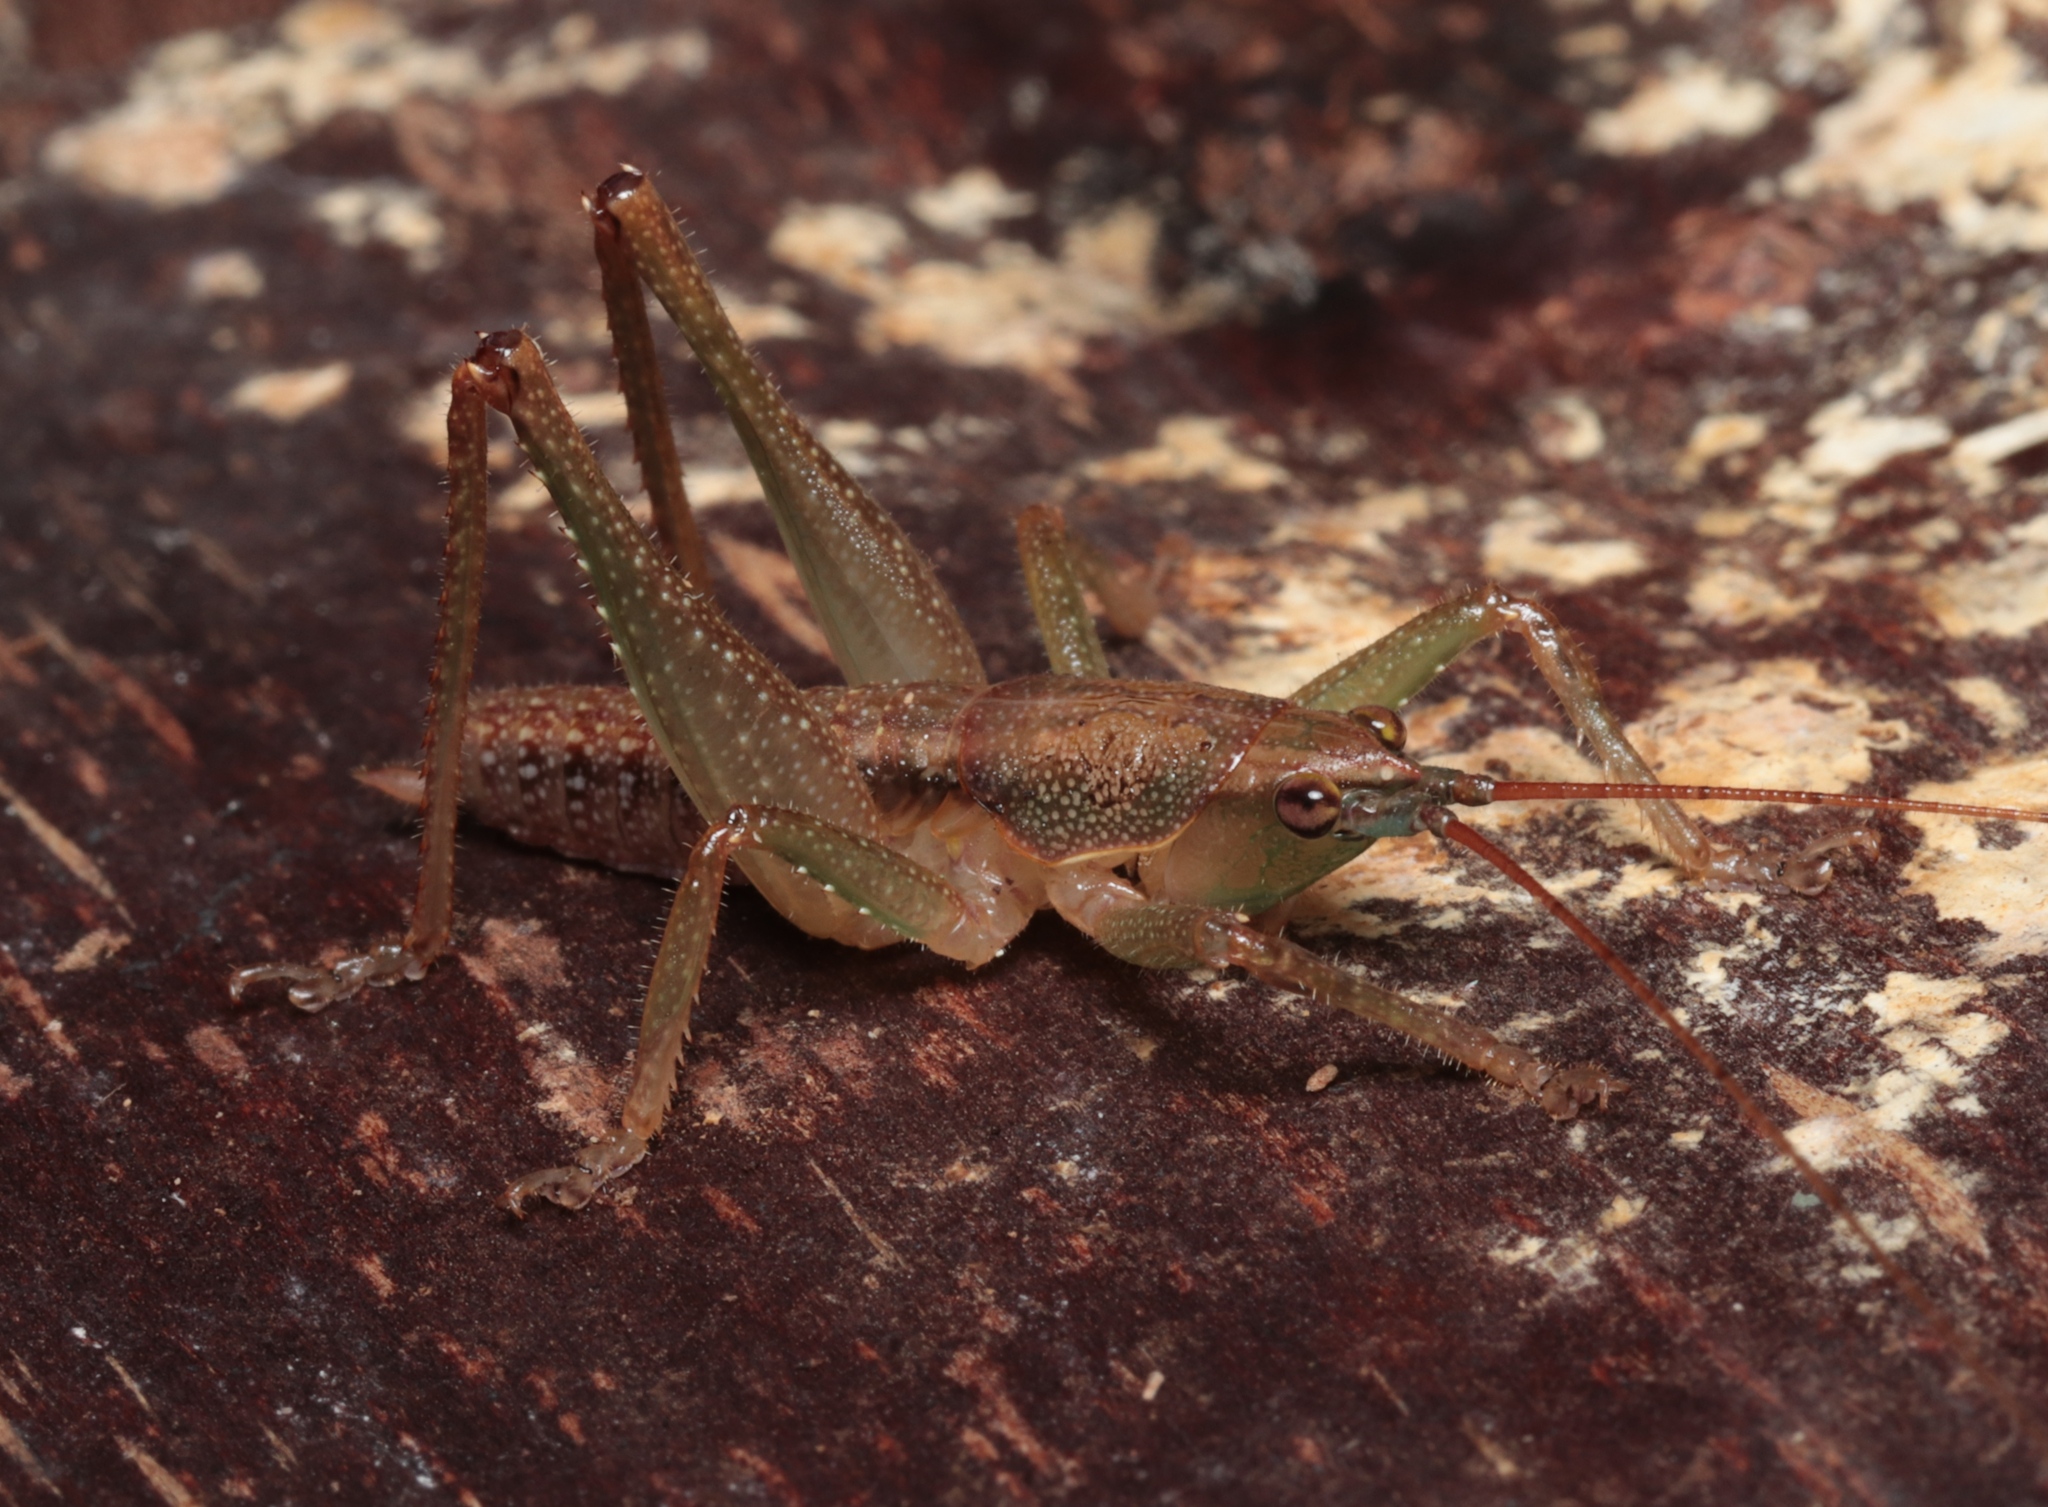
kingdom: Animalia
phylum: Arthropoda
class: Insecta
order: Orthoptera
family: Tettigoniidae
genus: Austrosalomona
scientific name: Austrosalomona falcata
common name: Olive-green coastal katydid
